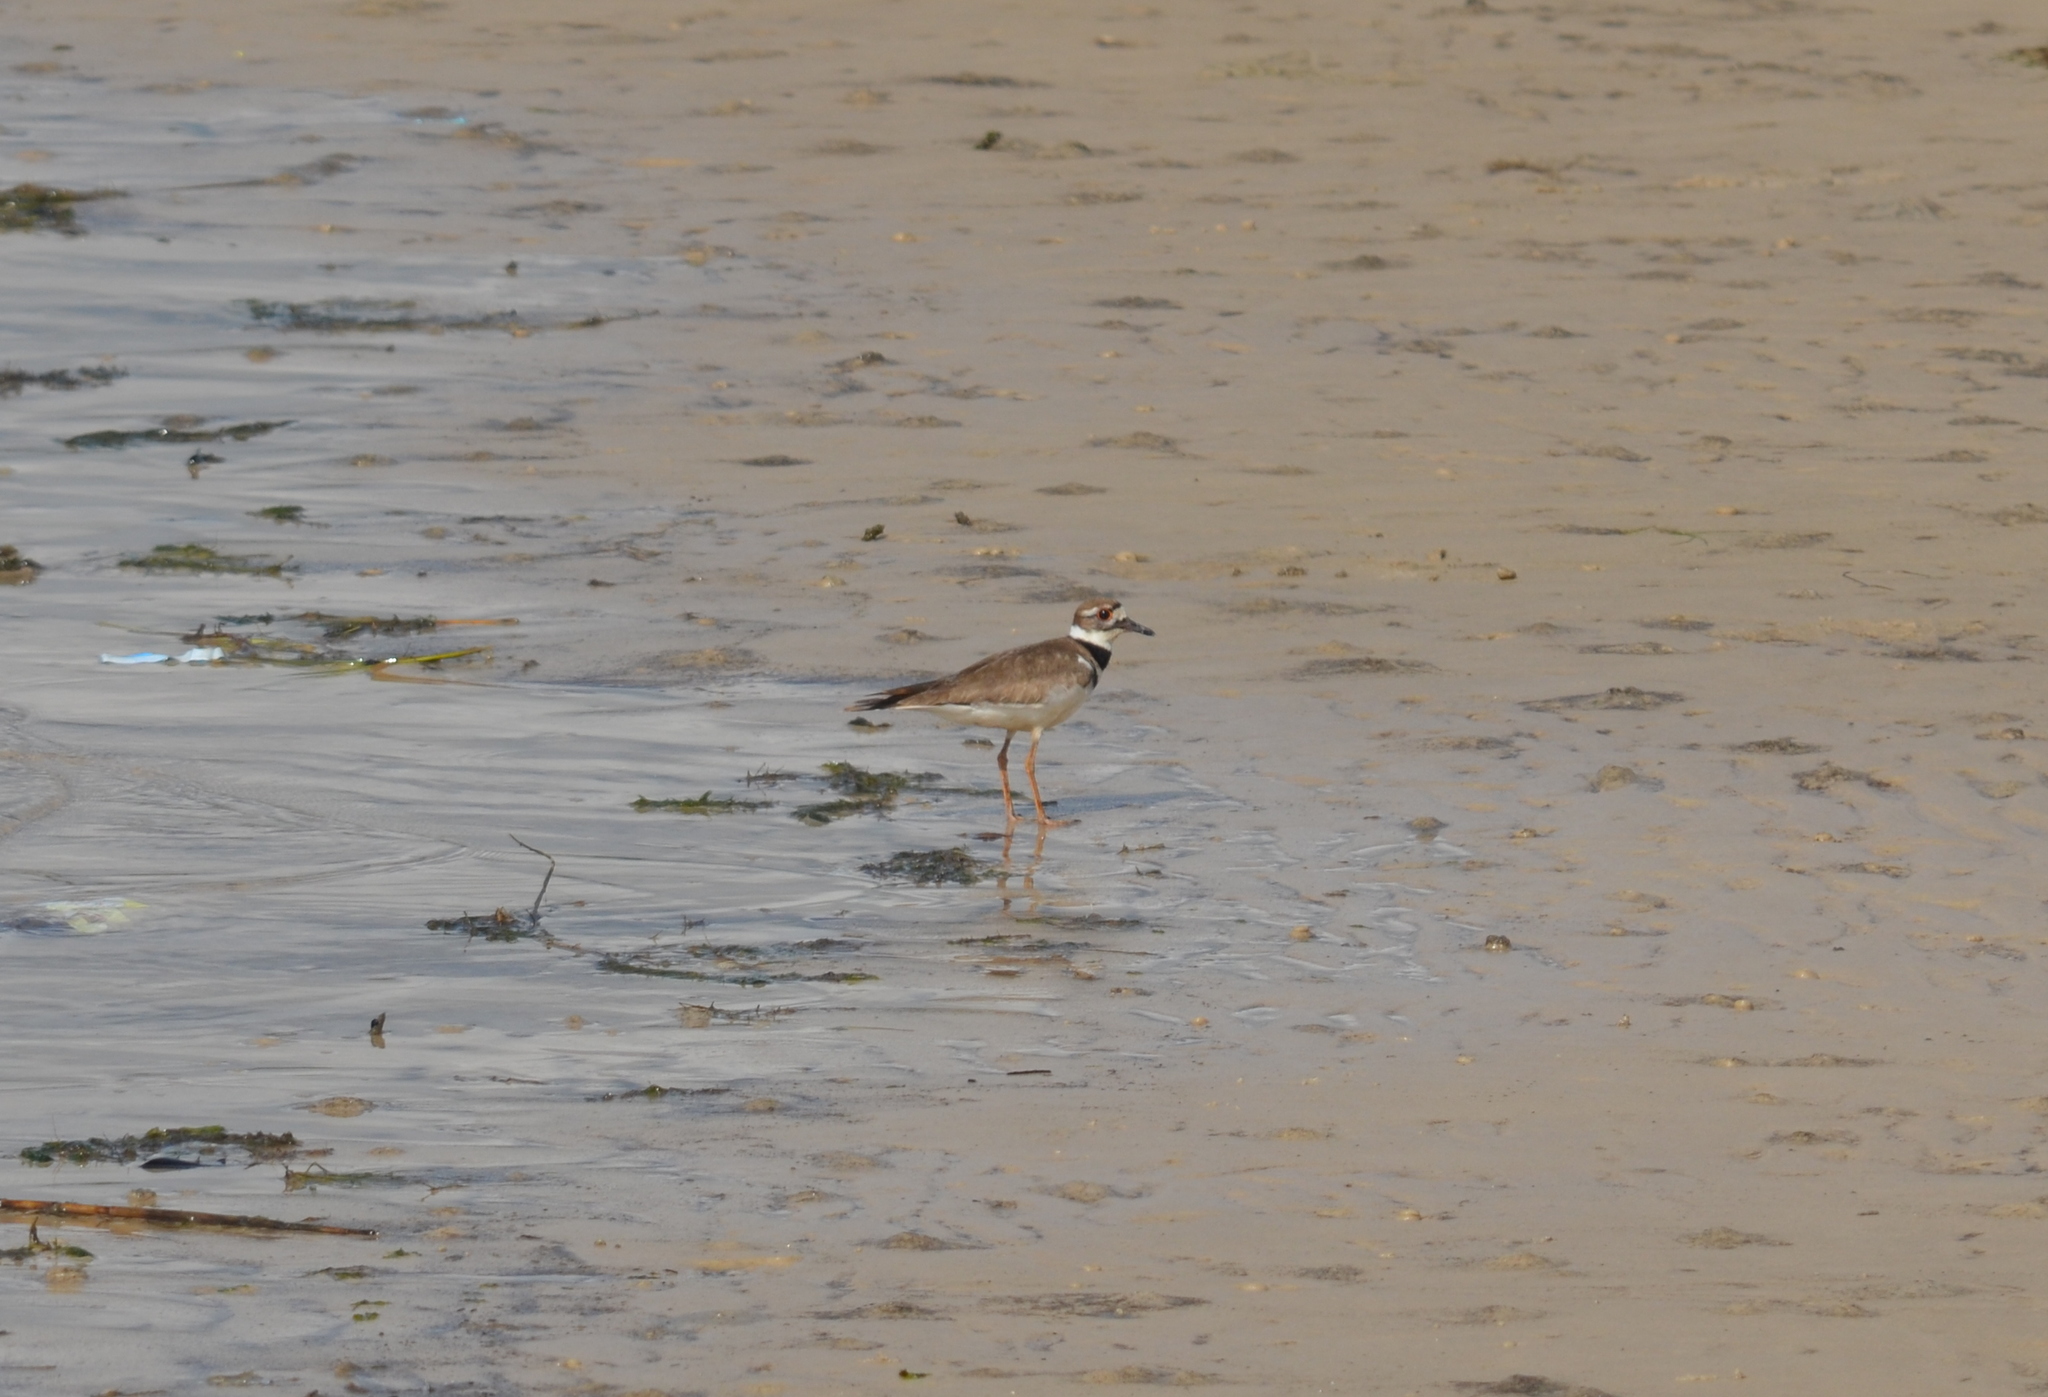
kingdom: Animalia
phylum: Chordata
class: Aves
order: Charadriiformes
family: Charadriidae
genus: Charadrius
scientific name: Charadrius vociferus
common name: Killdeer
